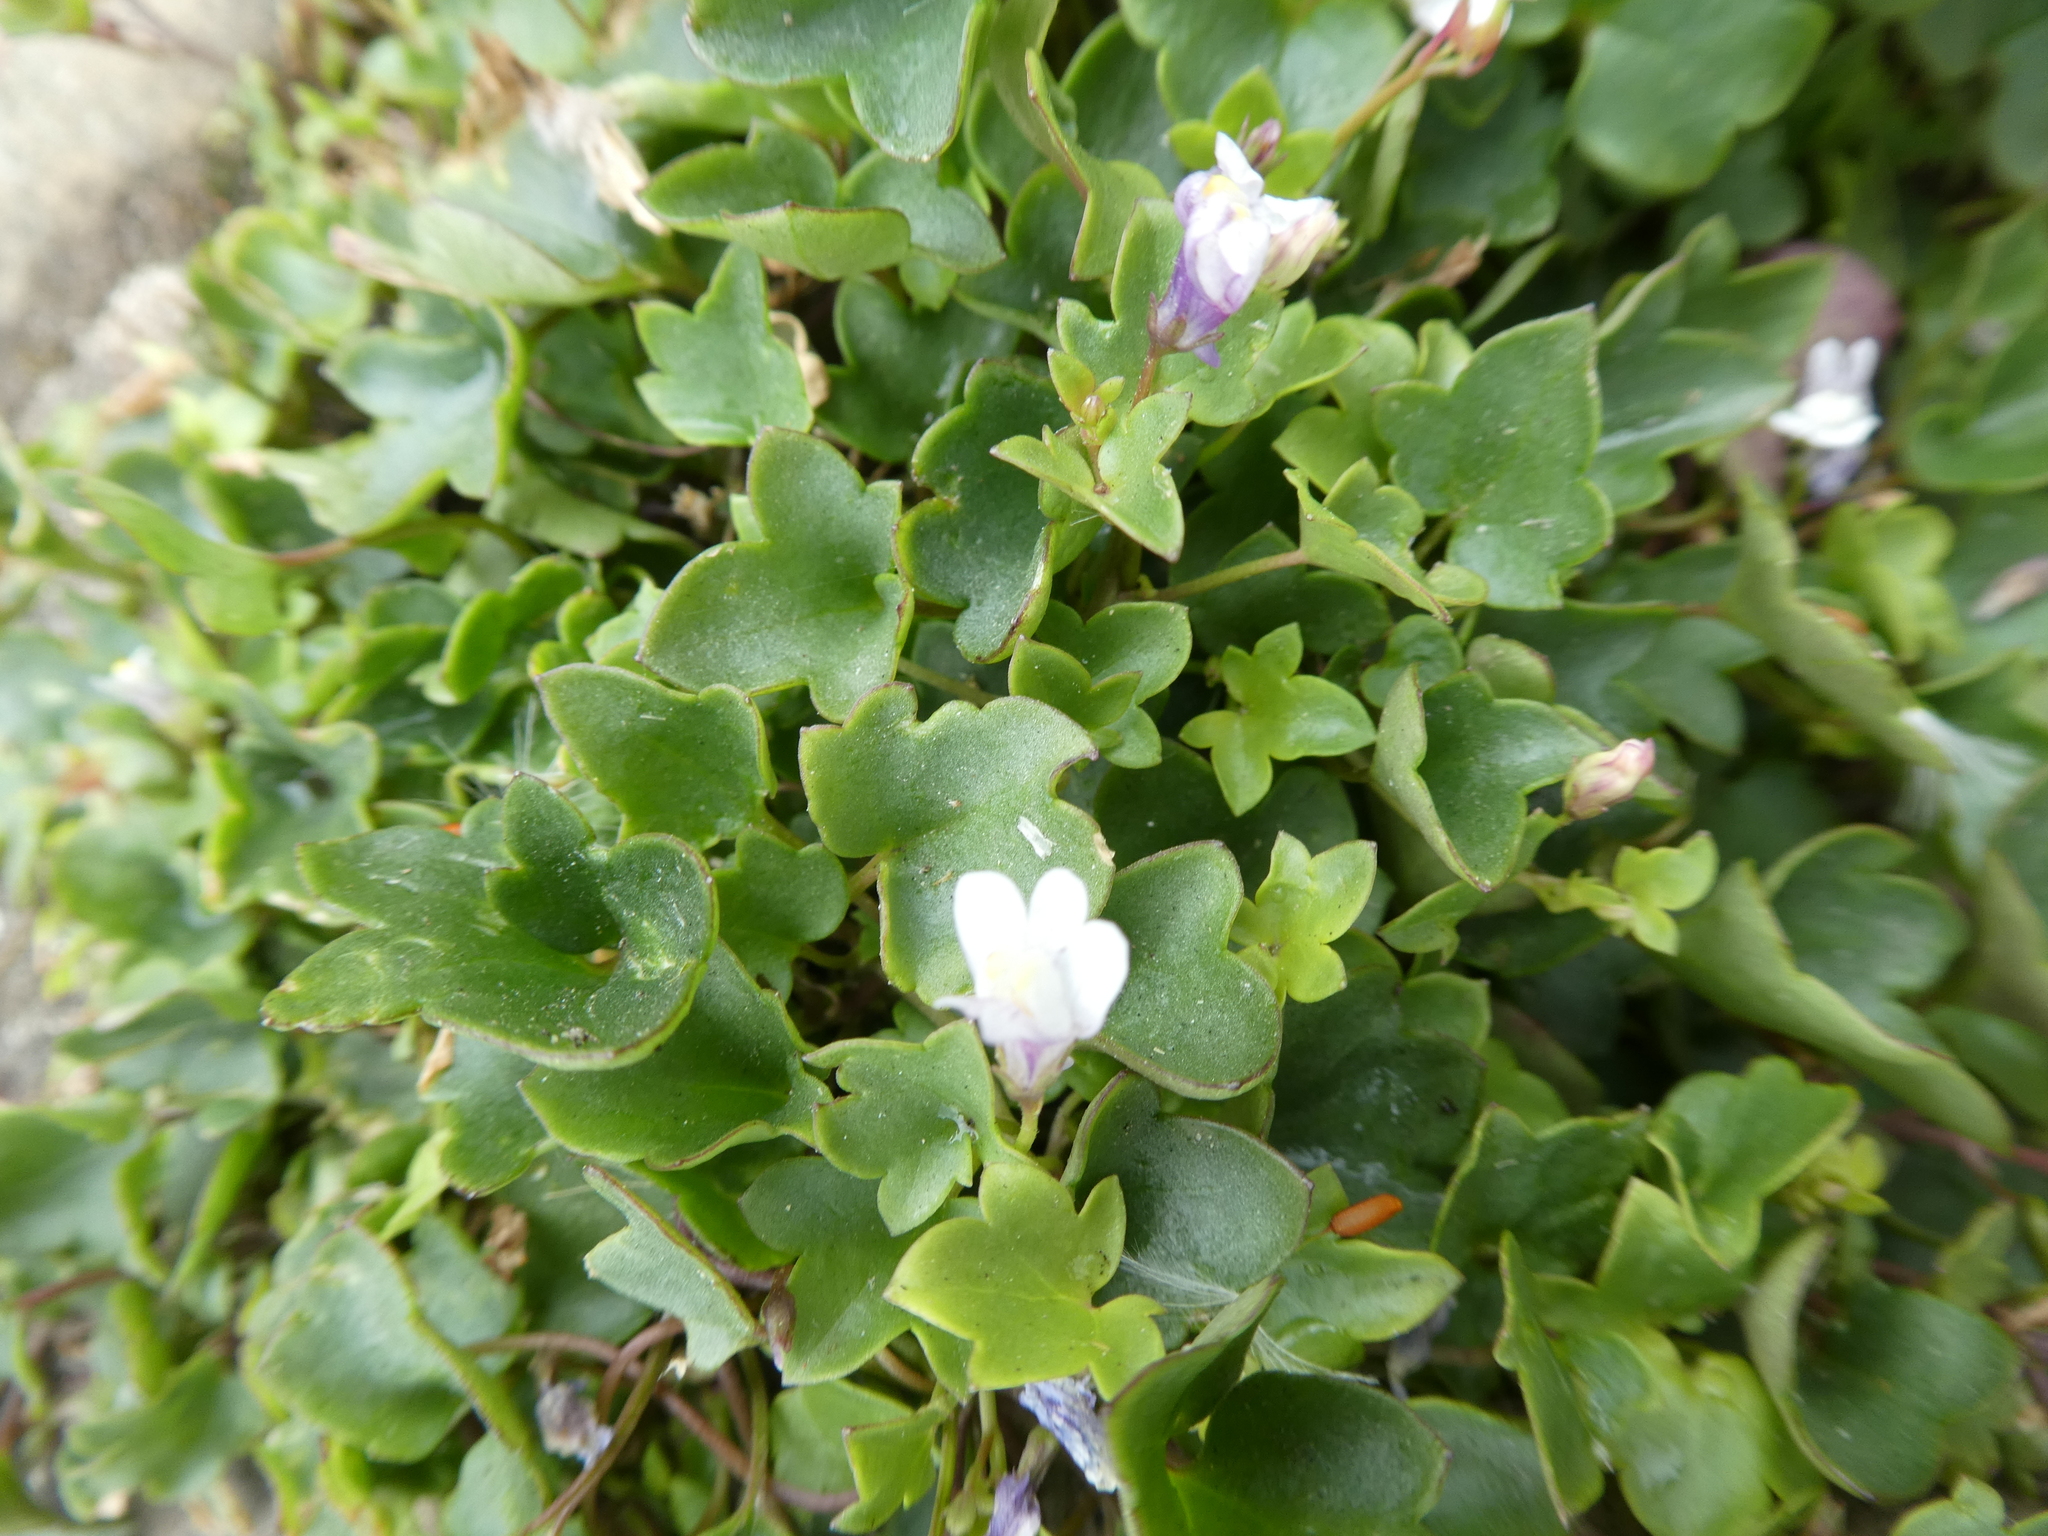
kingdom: Plantae
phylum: Tracheophyta
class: Magnoliopsida
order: Lamiales
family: Plantaginaceae
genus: Cymbalaria
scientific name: Cymbalaria muralis
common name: Ivy-leaved toadflax
